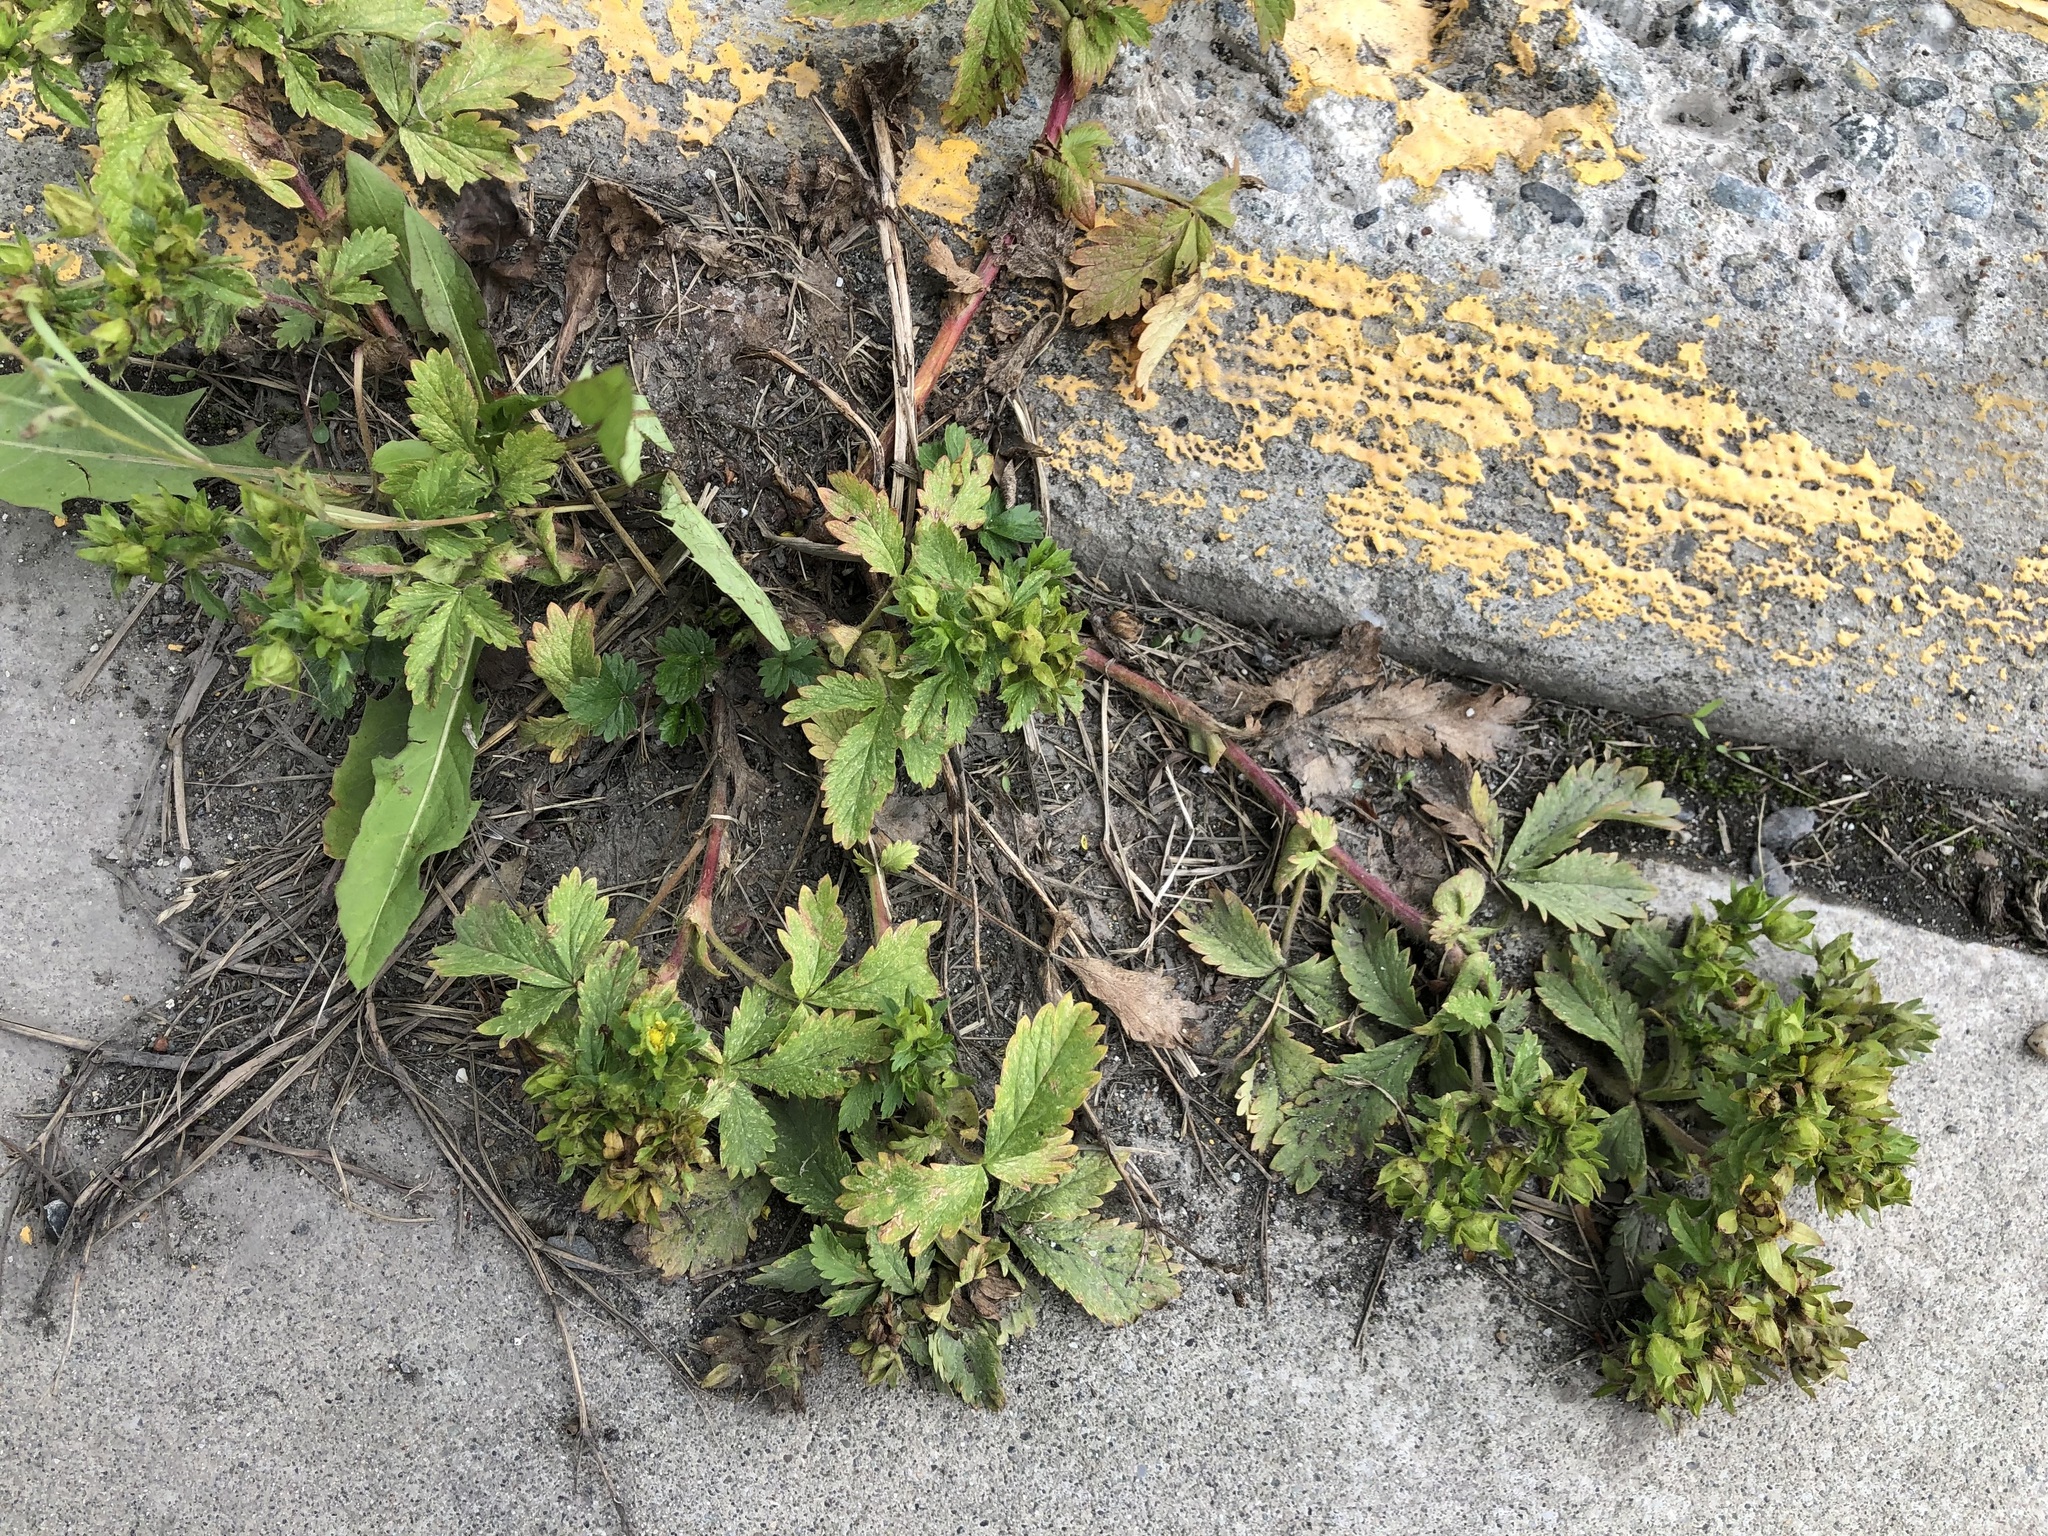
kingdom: Plantae
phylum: Tracheophyta
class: Magnoliopsida
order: Rosales
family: Rosaceae
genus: Potentilla
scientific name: Potentilla norvegica
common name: Ternate-leaved cinquefoil
